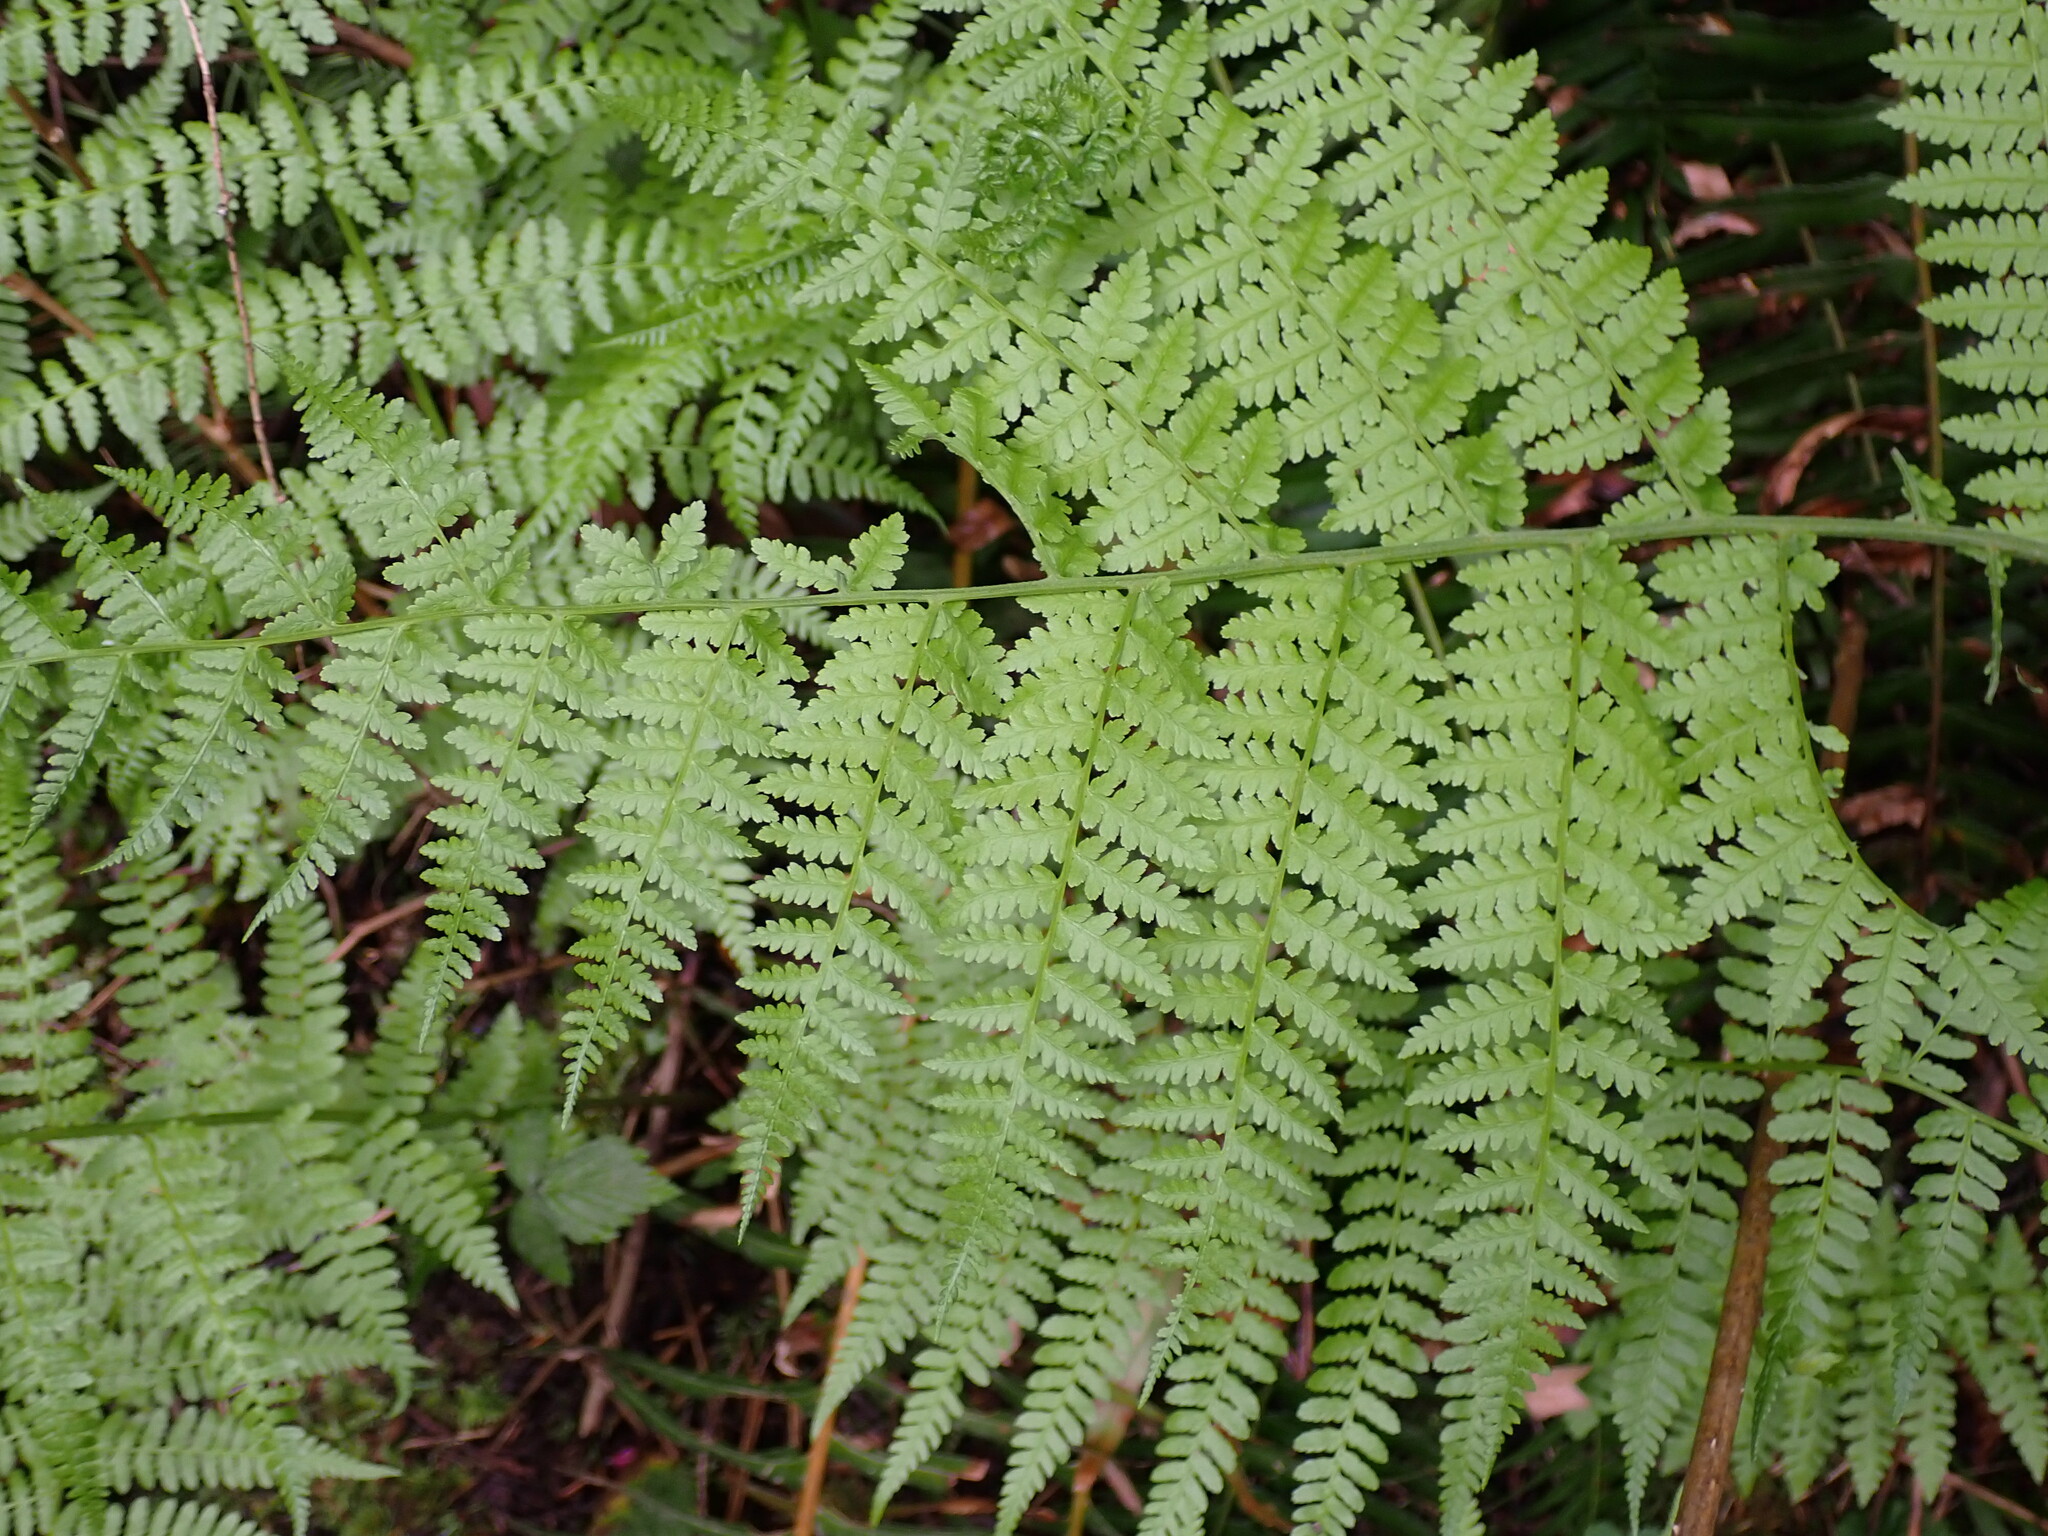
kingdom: Plantae
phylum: Tracheophyta
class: Polypodiopsida
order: Polypodiales
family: Athyriaceae
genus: Athyrium
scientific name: Athyrium filix-femina
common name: Lady fern
